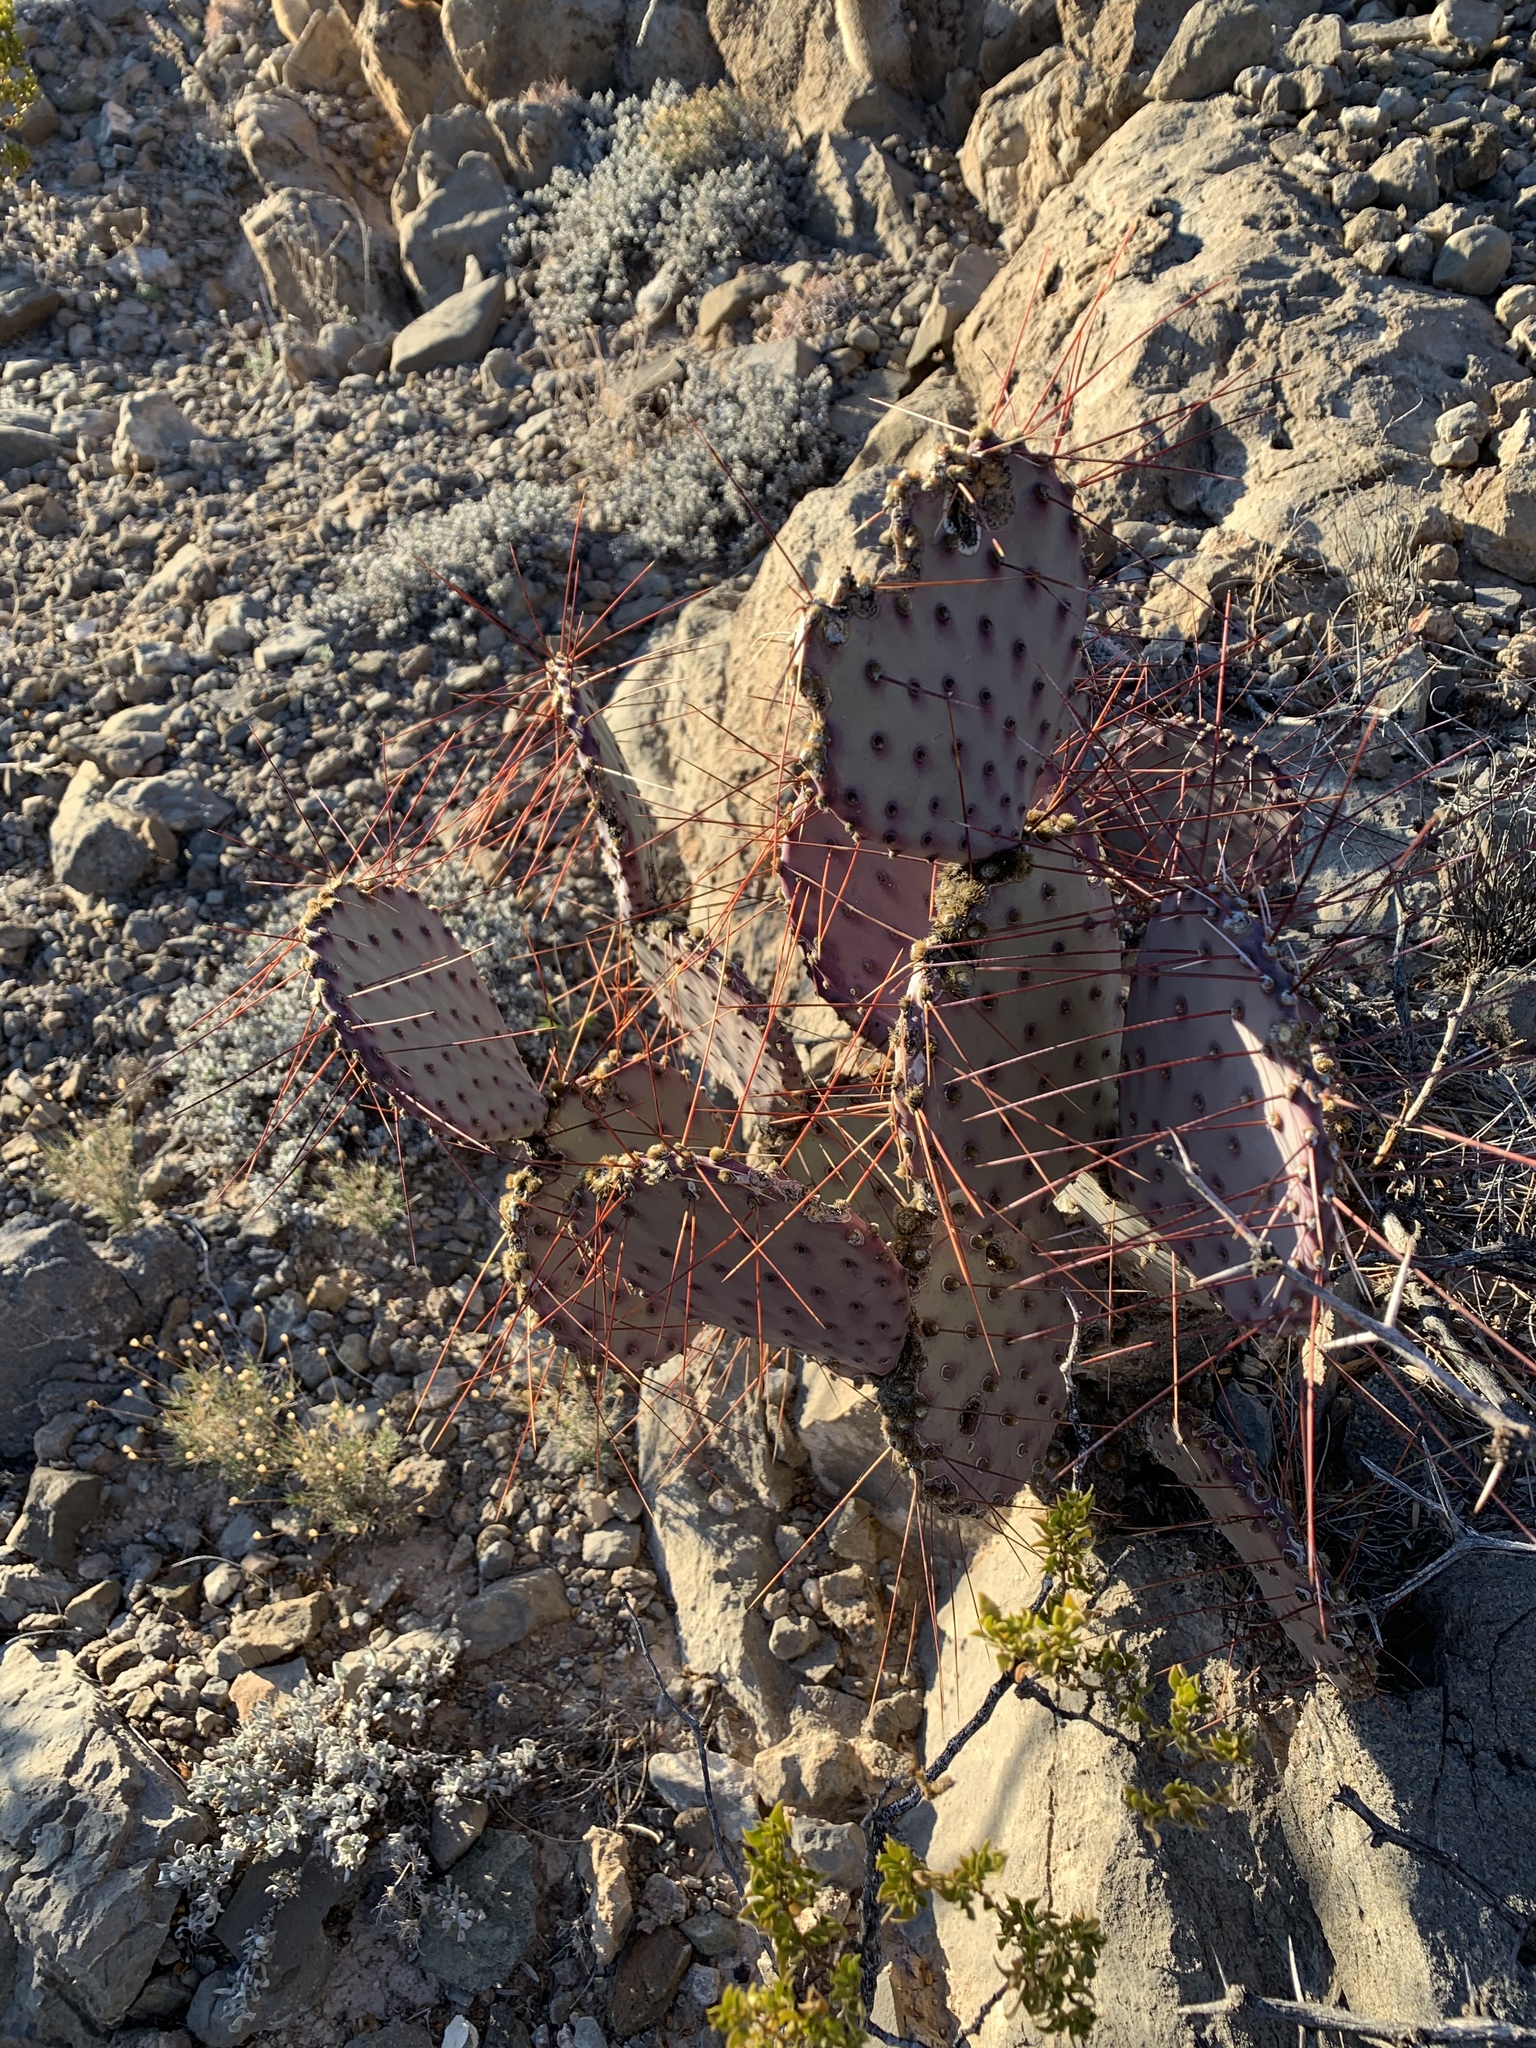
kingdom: Plantae
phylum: Tracheophyta
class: Magnoliopsida
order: Caryophyllales
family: Cactaceae
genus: Opuntia
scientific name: Opuntia macrocentra
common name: Purple prickly-pear
